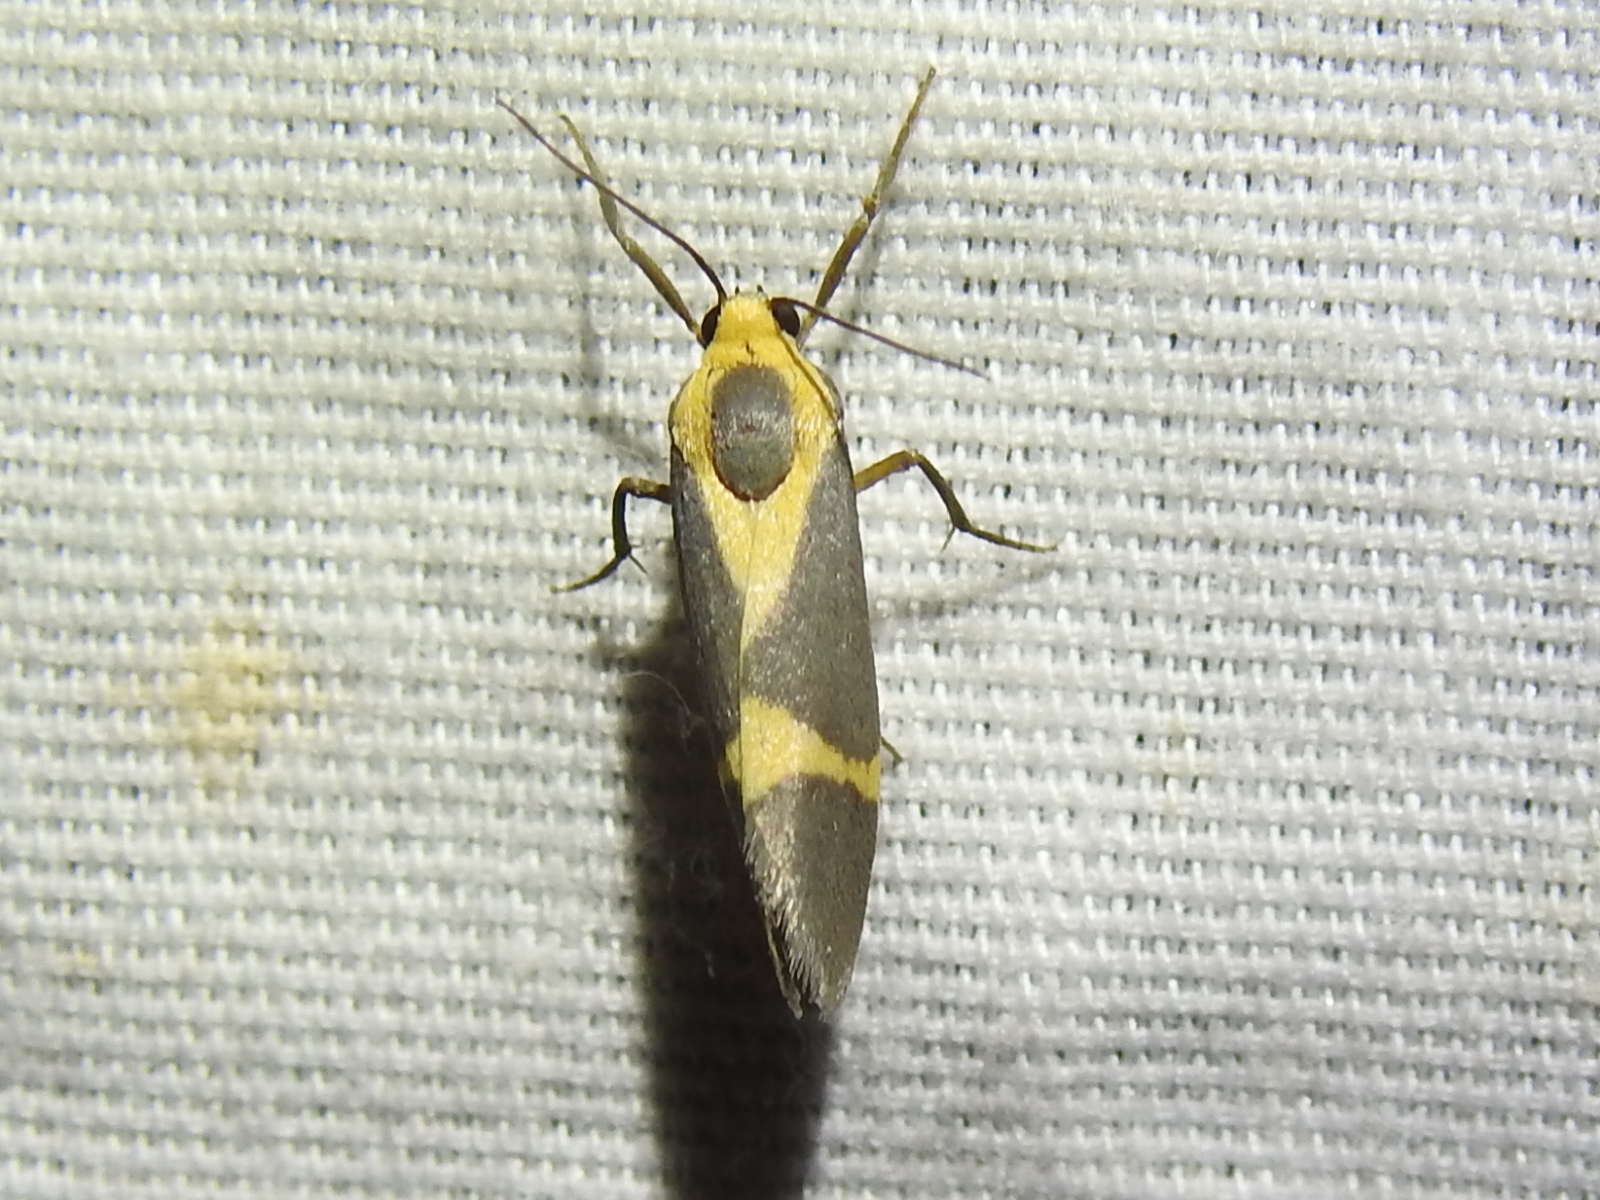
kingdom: Animalia
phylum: Arthropoda
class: Insecta
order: Lepidoptera
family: Erebidae
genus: Cisthene
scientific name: Cisthene tenuifascia
